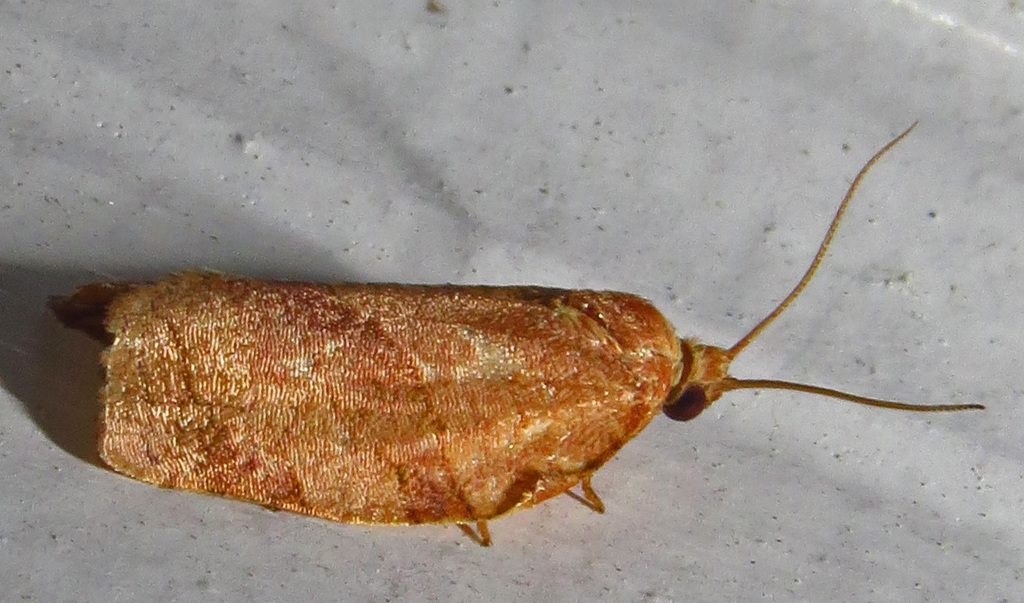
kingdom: Animalia
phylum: Arthropoda
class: Insecta
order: Lepidoptera
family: Tortricidae
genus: Choristoneura
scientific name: Choristoneura rosaceana
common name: Oblique-banded leafroller moth
